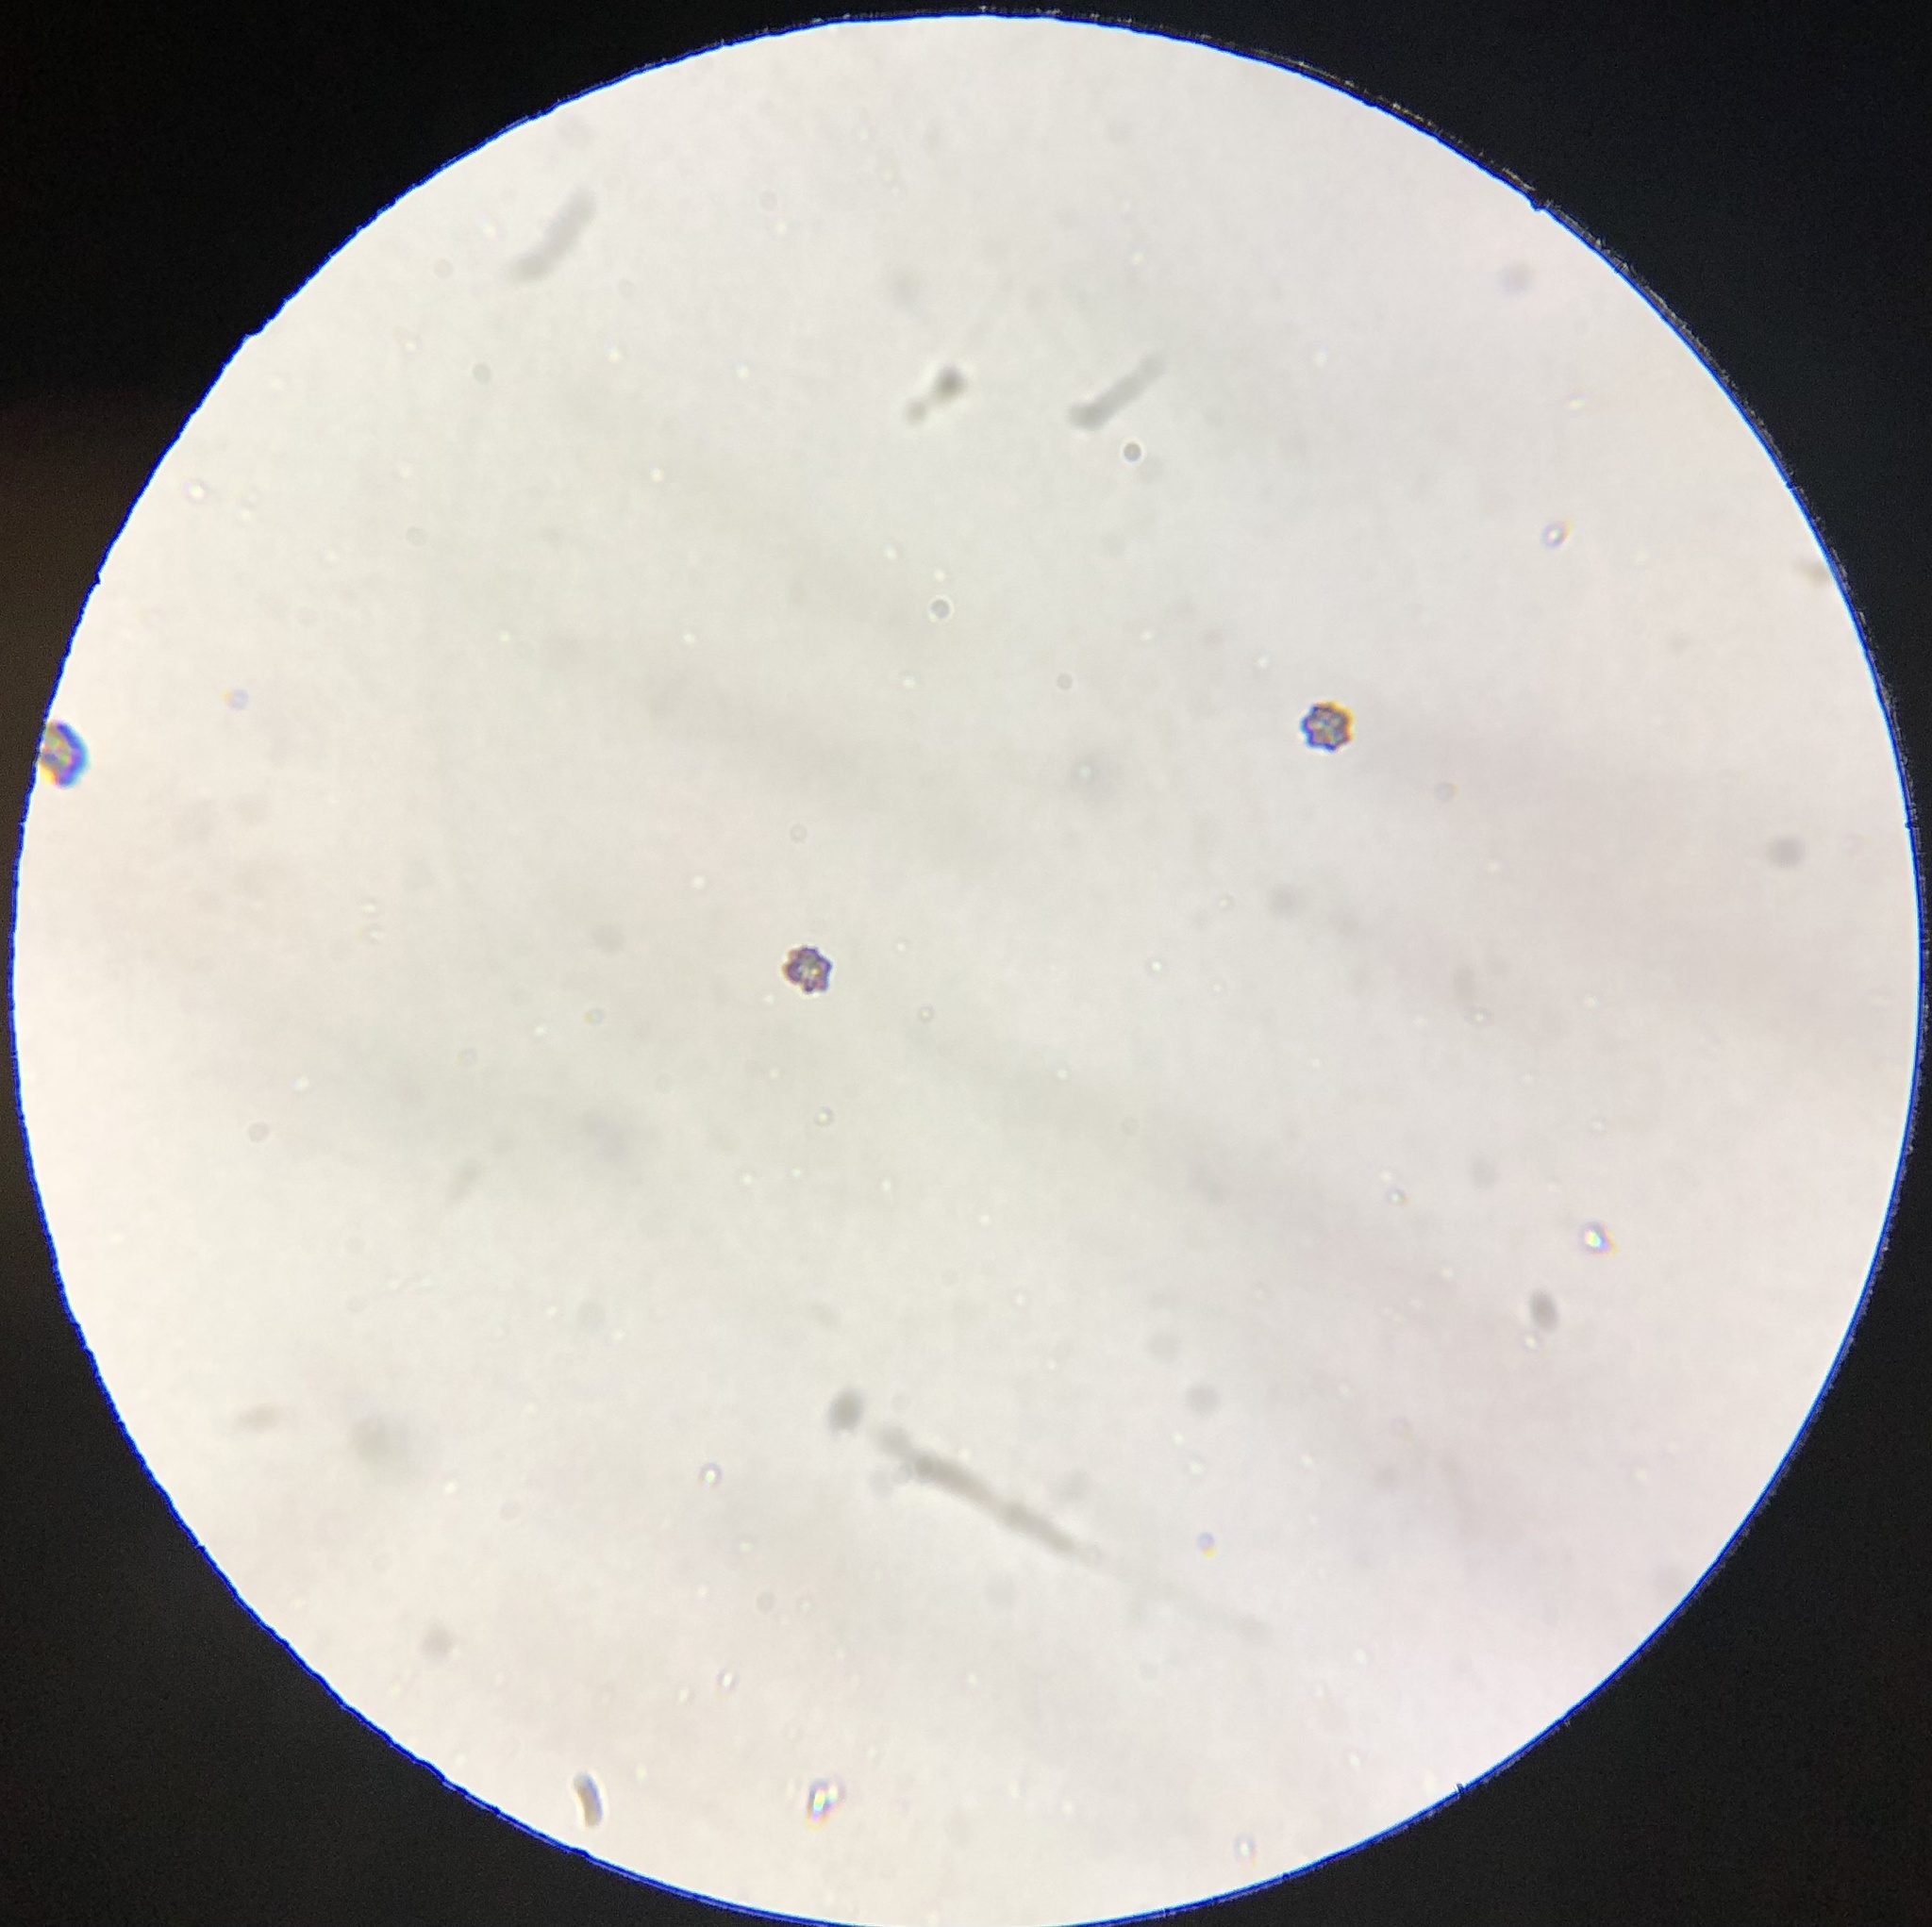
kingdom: Fungi
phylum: Basidiomycota
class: Agaricomycetes
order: Russulales
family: Russulaceae
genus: Lactifluus
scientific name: Lactifluus volemus
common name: Fishy milkcap
